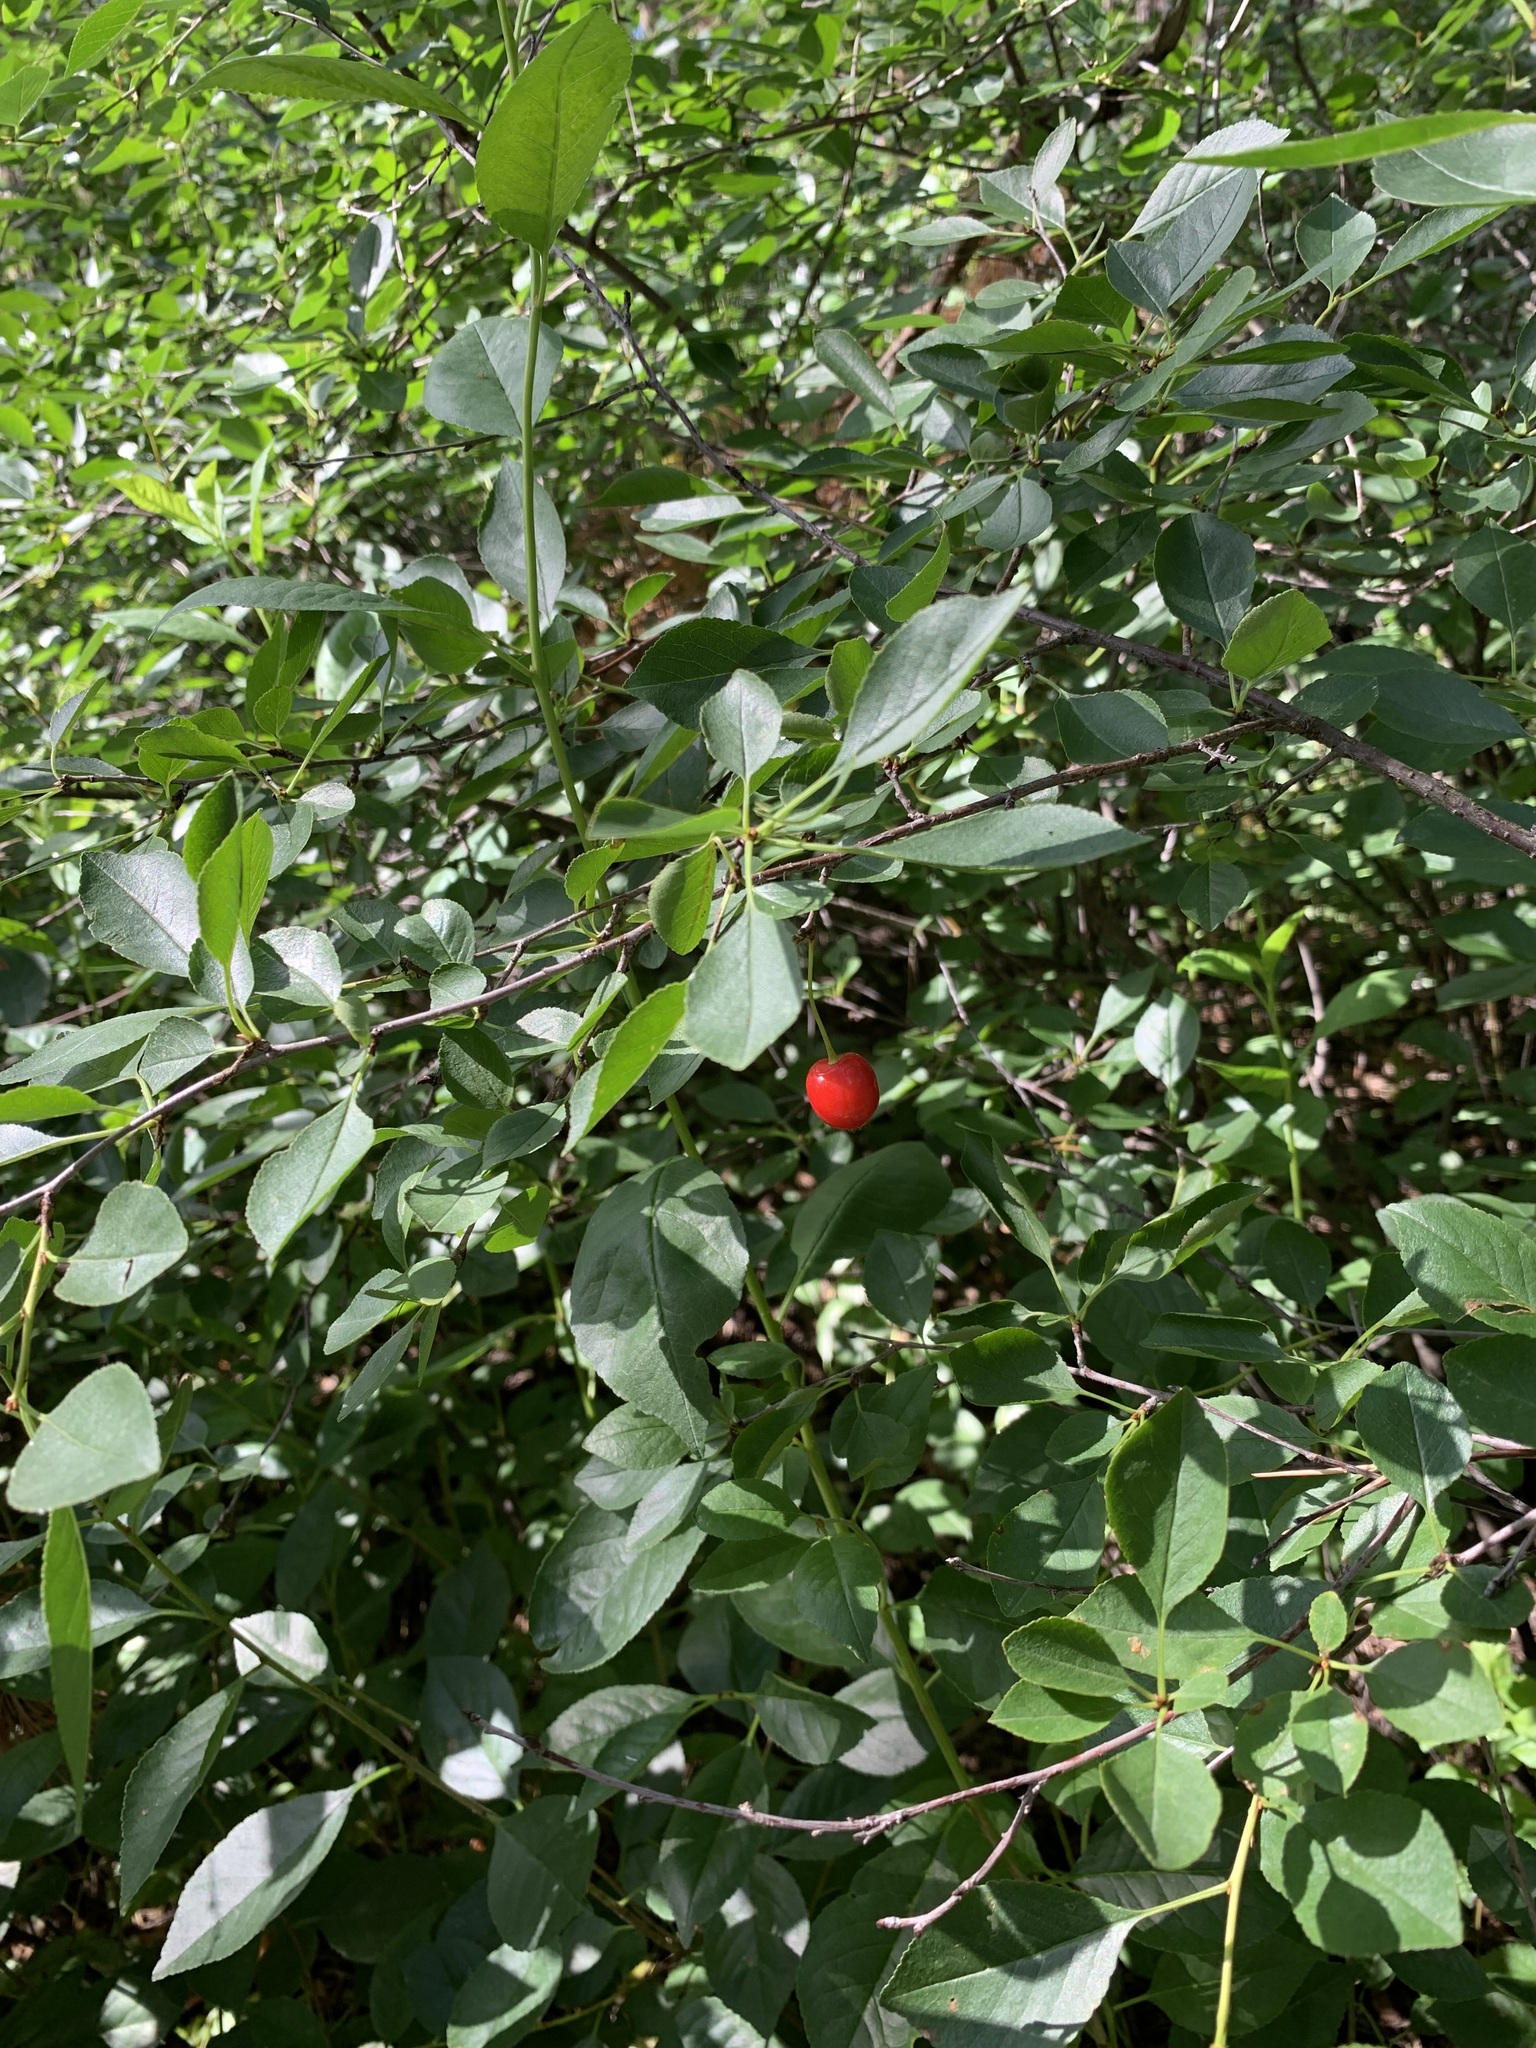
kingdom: Plantae
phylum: Tracheophyta
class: Magnoliopsida
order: Rosales
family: Rosaceae
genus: Prunus
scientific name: Prunus cerasus
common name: Morello cherry
